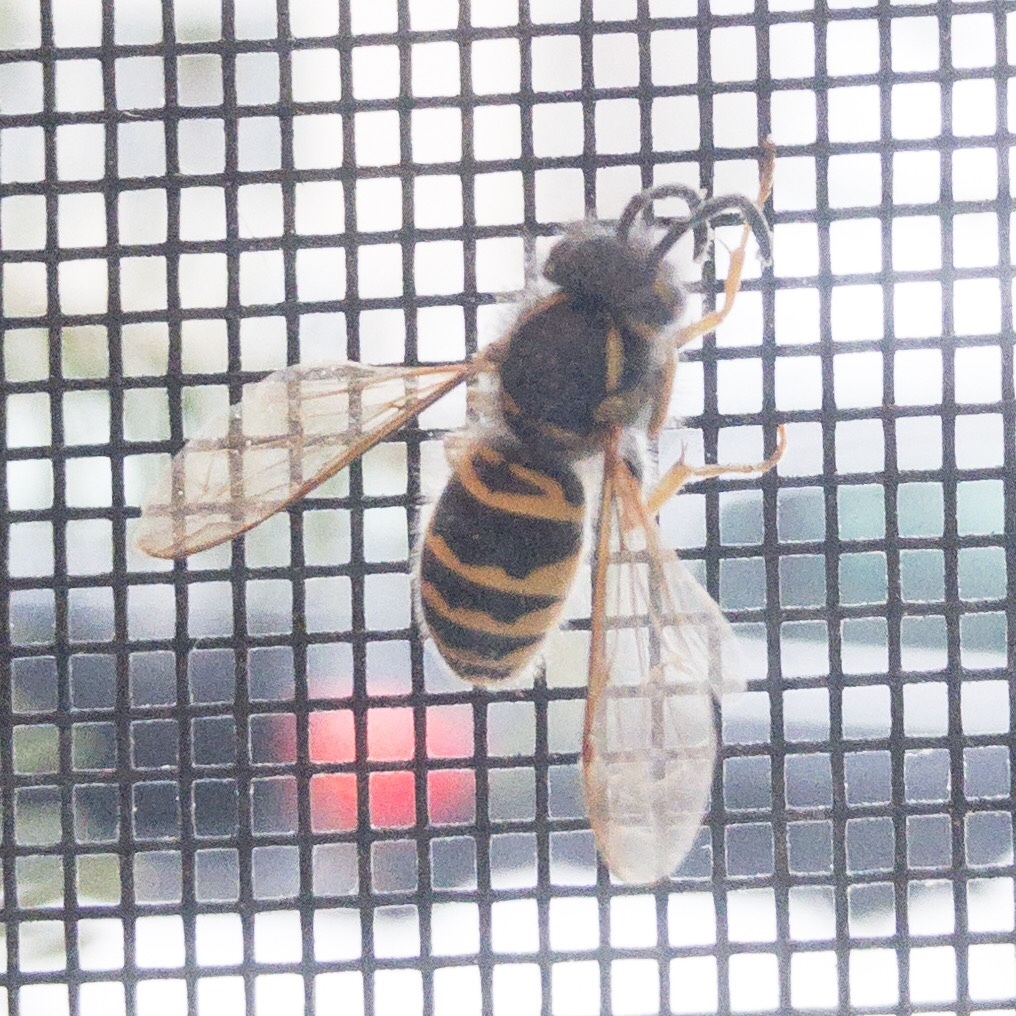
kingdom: Animalia
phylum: Arthropoda
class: Insecta
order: Hymenoptera
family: Vespidae
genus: Vespula
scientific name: Vespula maculifrons
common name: Eastern yellowjacket
